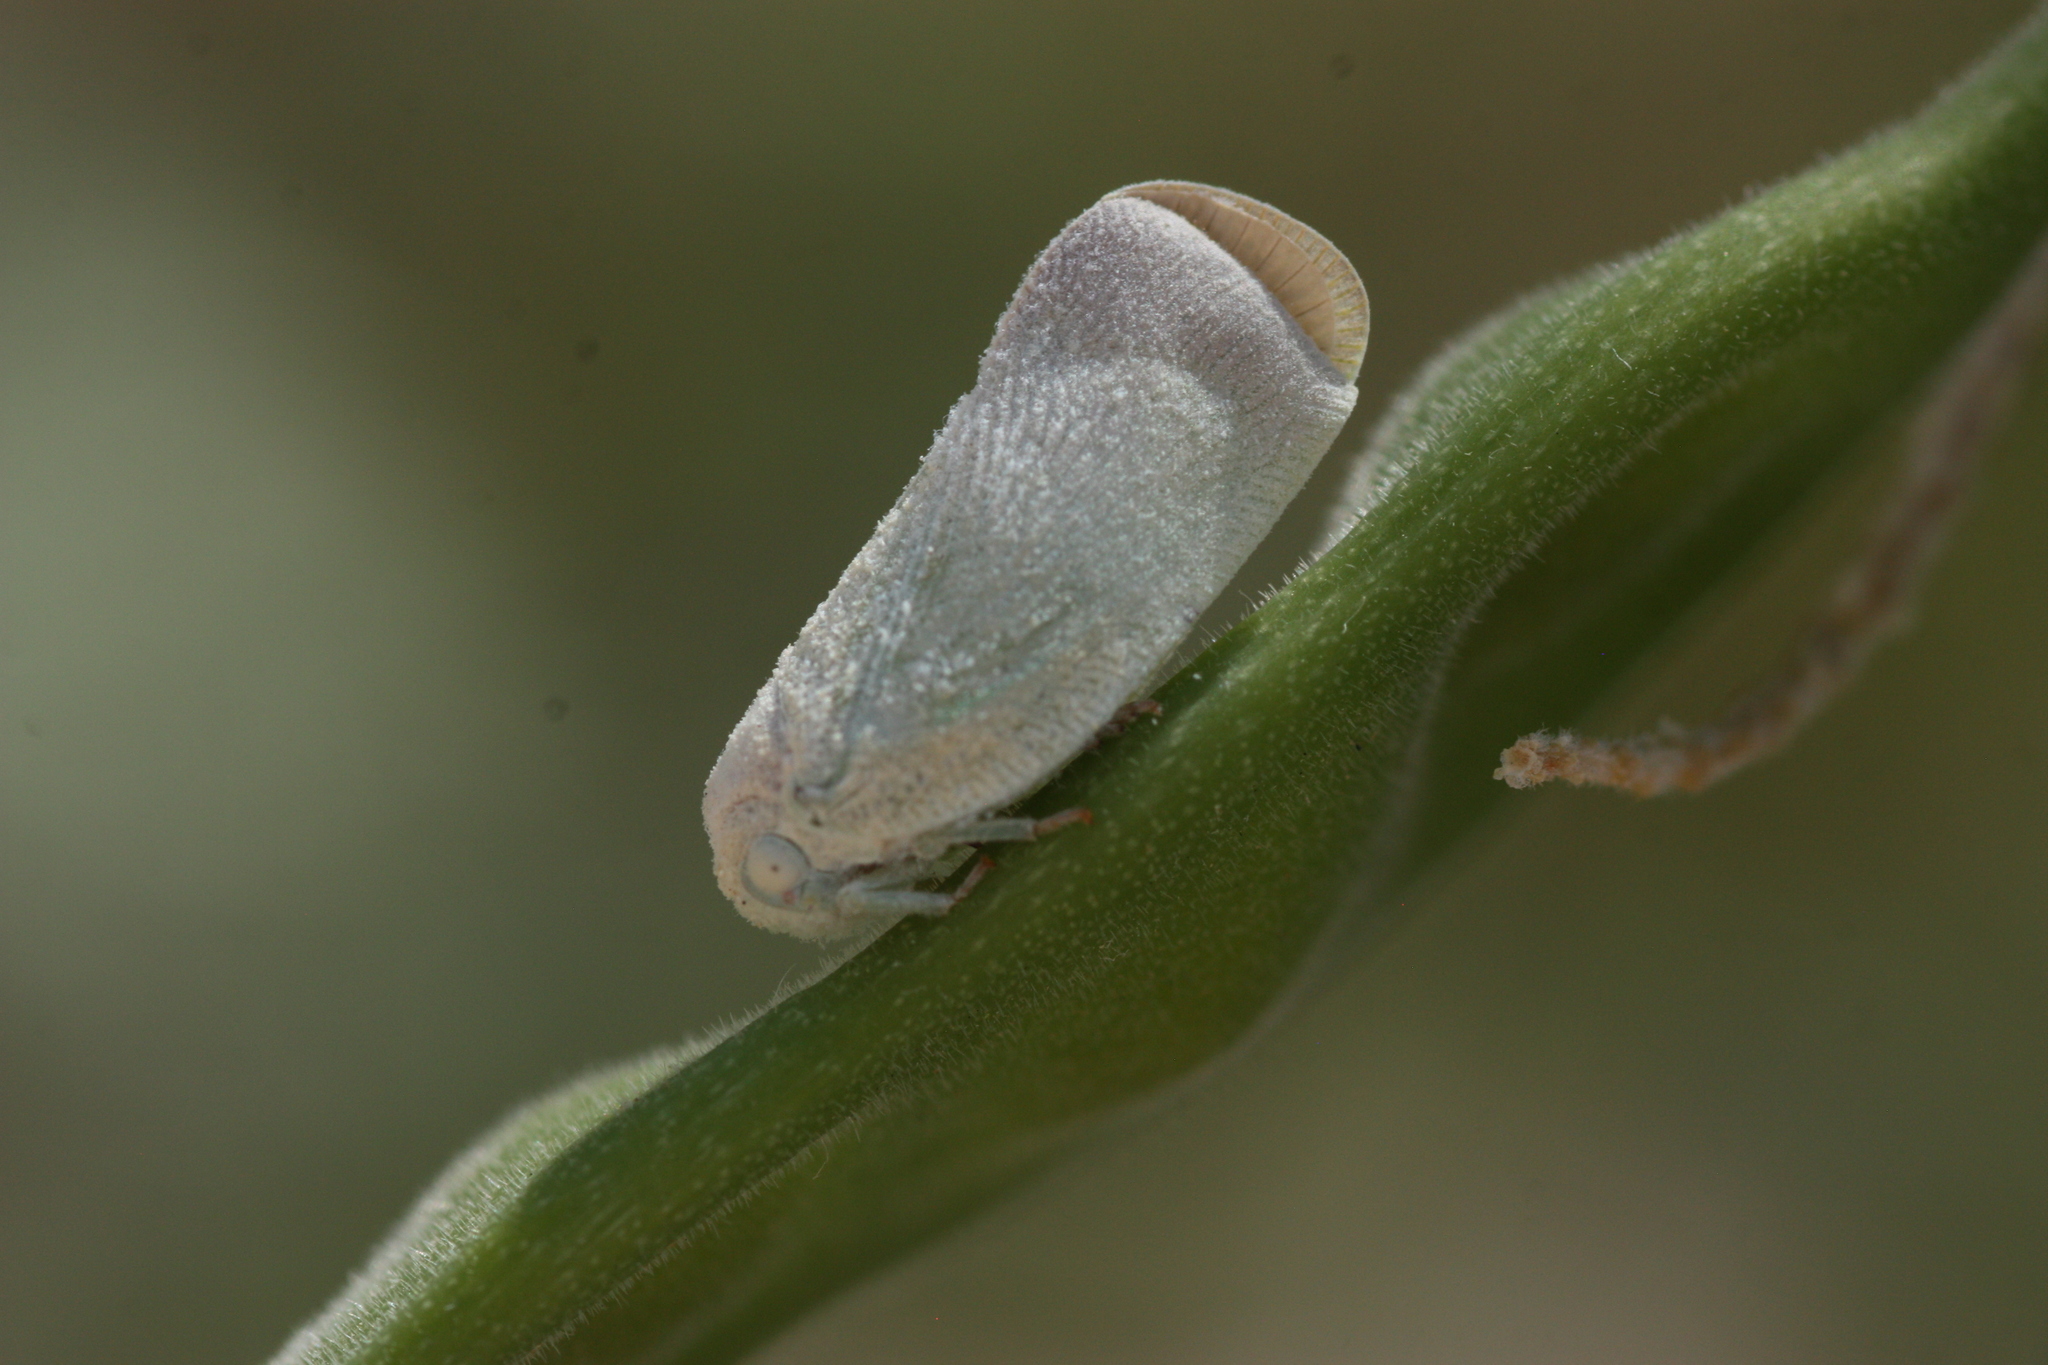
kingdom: Animalia
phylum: Arthropoda
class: Insecta
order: Hemiptera
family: Flatidae
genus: Flatormenis
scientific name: Flatormenis saucia
